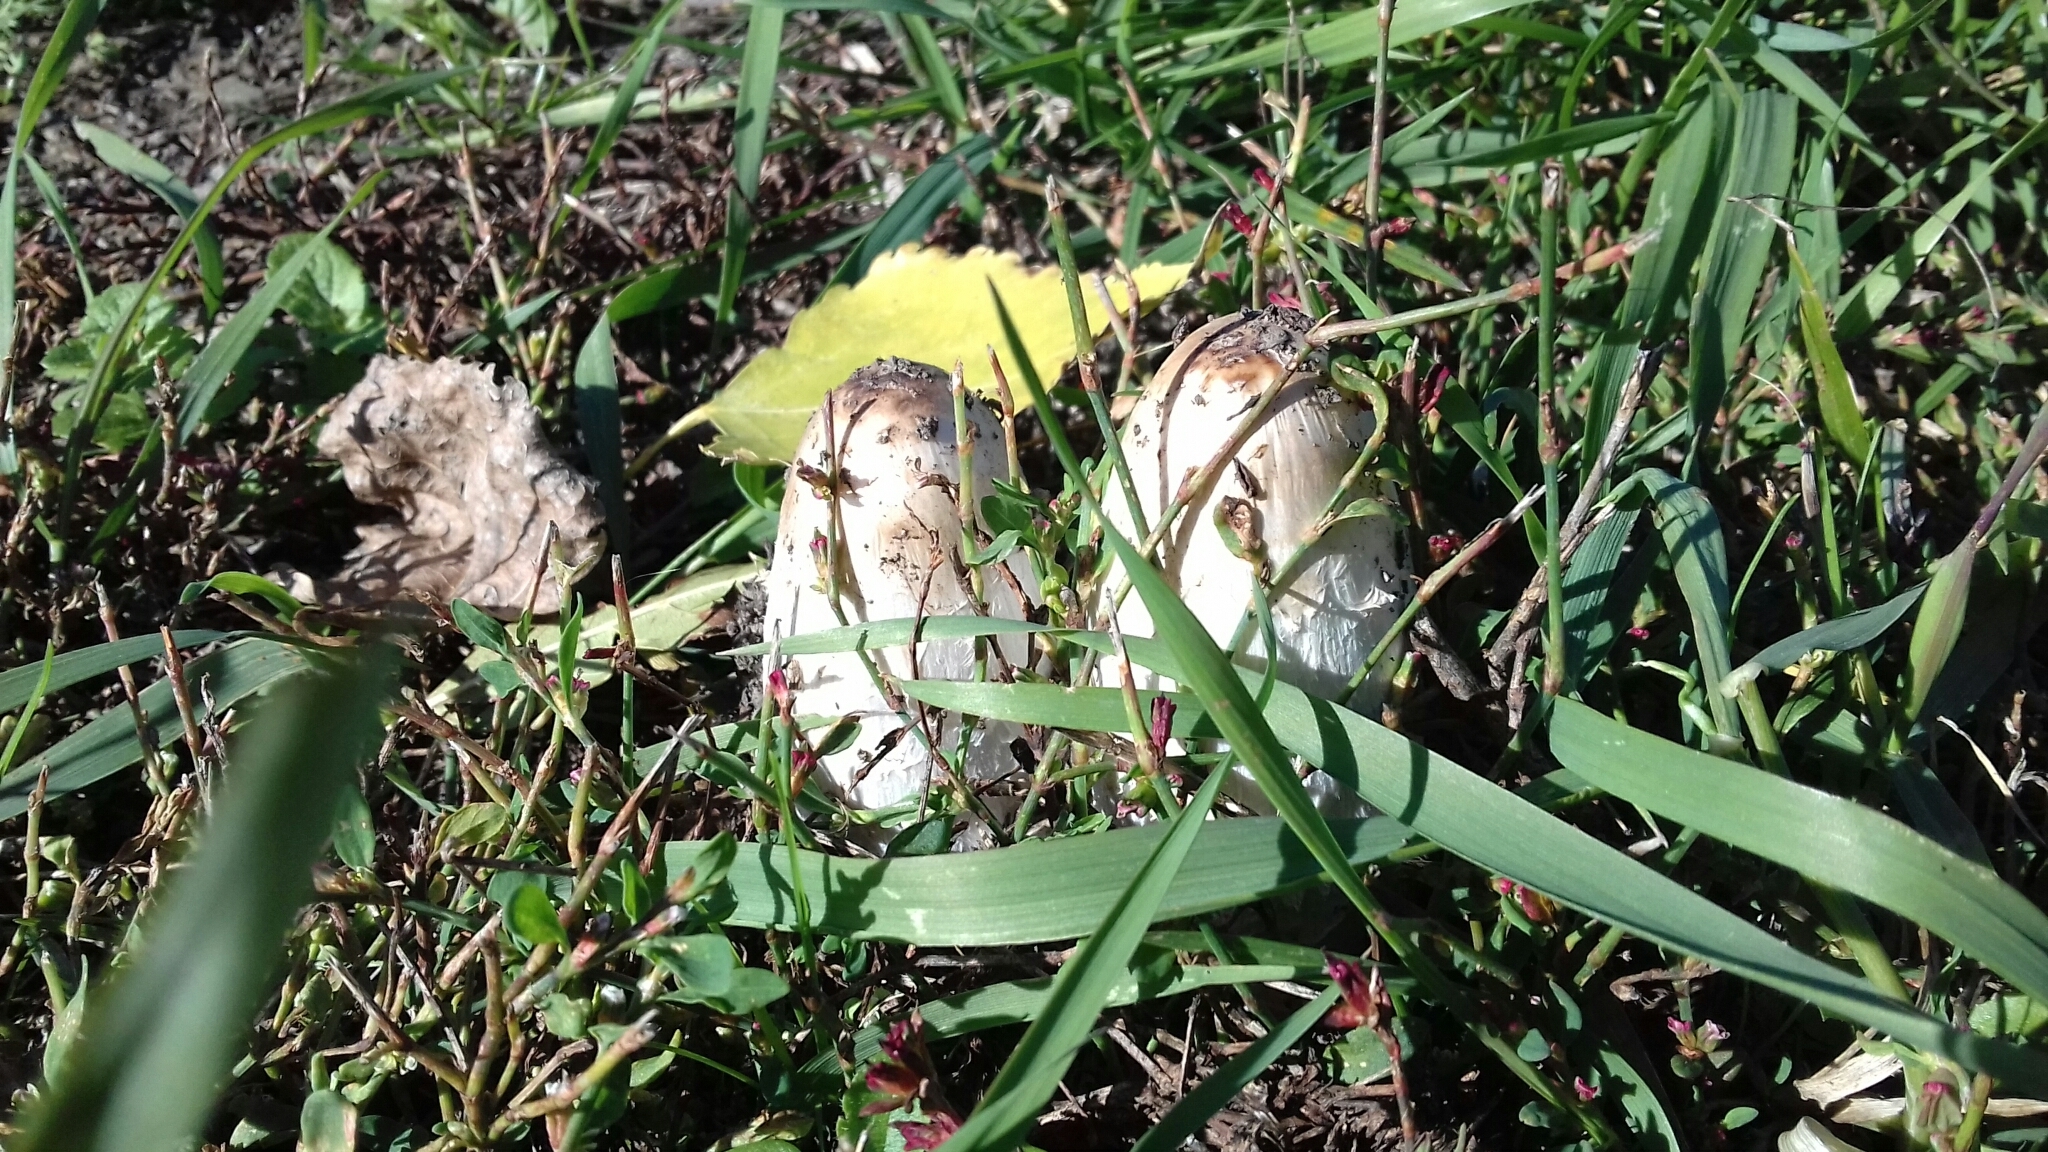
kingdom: Fungi
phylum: Basidiomycota
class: Agaricomycetes
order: Agaricales
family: Agaricaceae
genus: Coprinus
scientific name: Coprinus comatus
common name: Lawyer's wig
